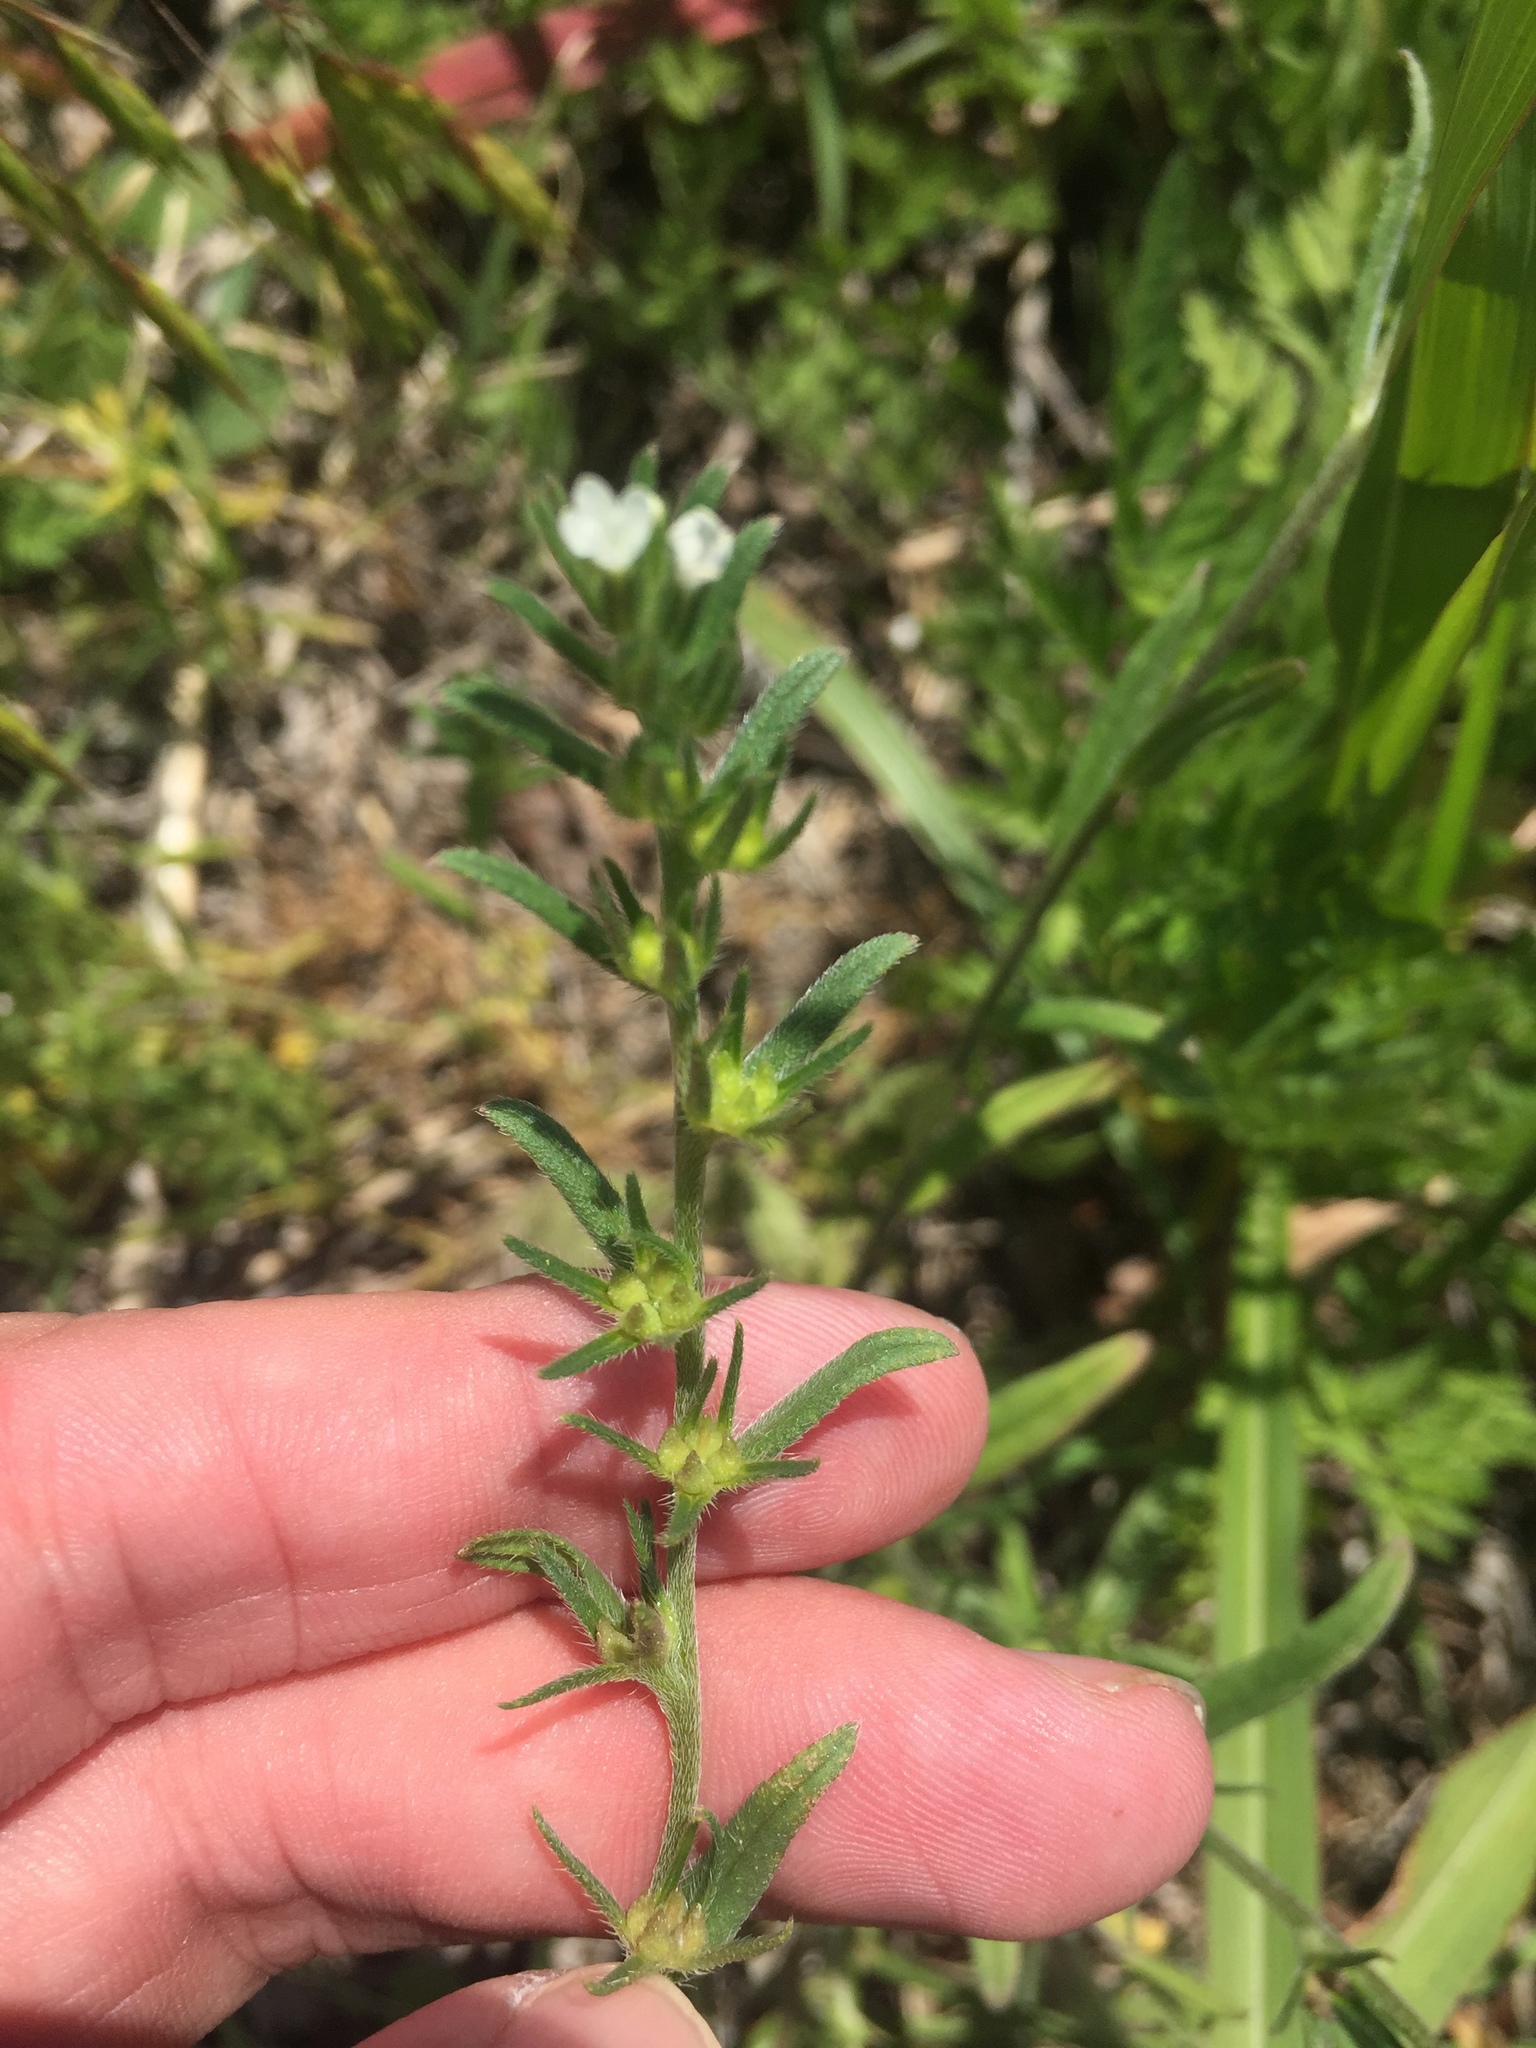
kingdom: Plantae
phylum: Tracheophyta
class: Magnoliopsida
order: Boraginales
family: Boraginaceae
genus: Buglossoides
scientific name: Buglossoides arvensis
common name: Corn gromwell
